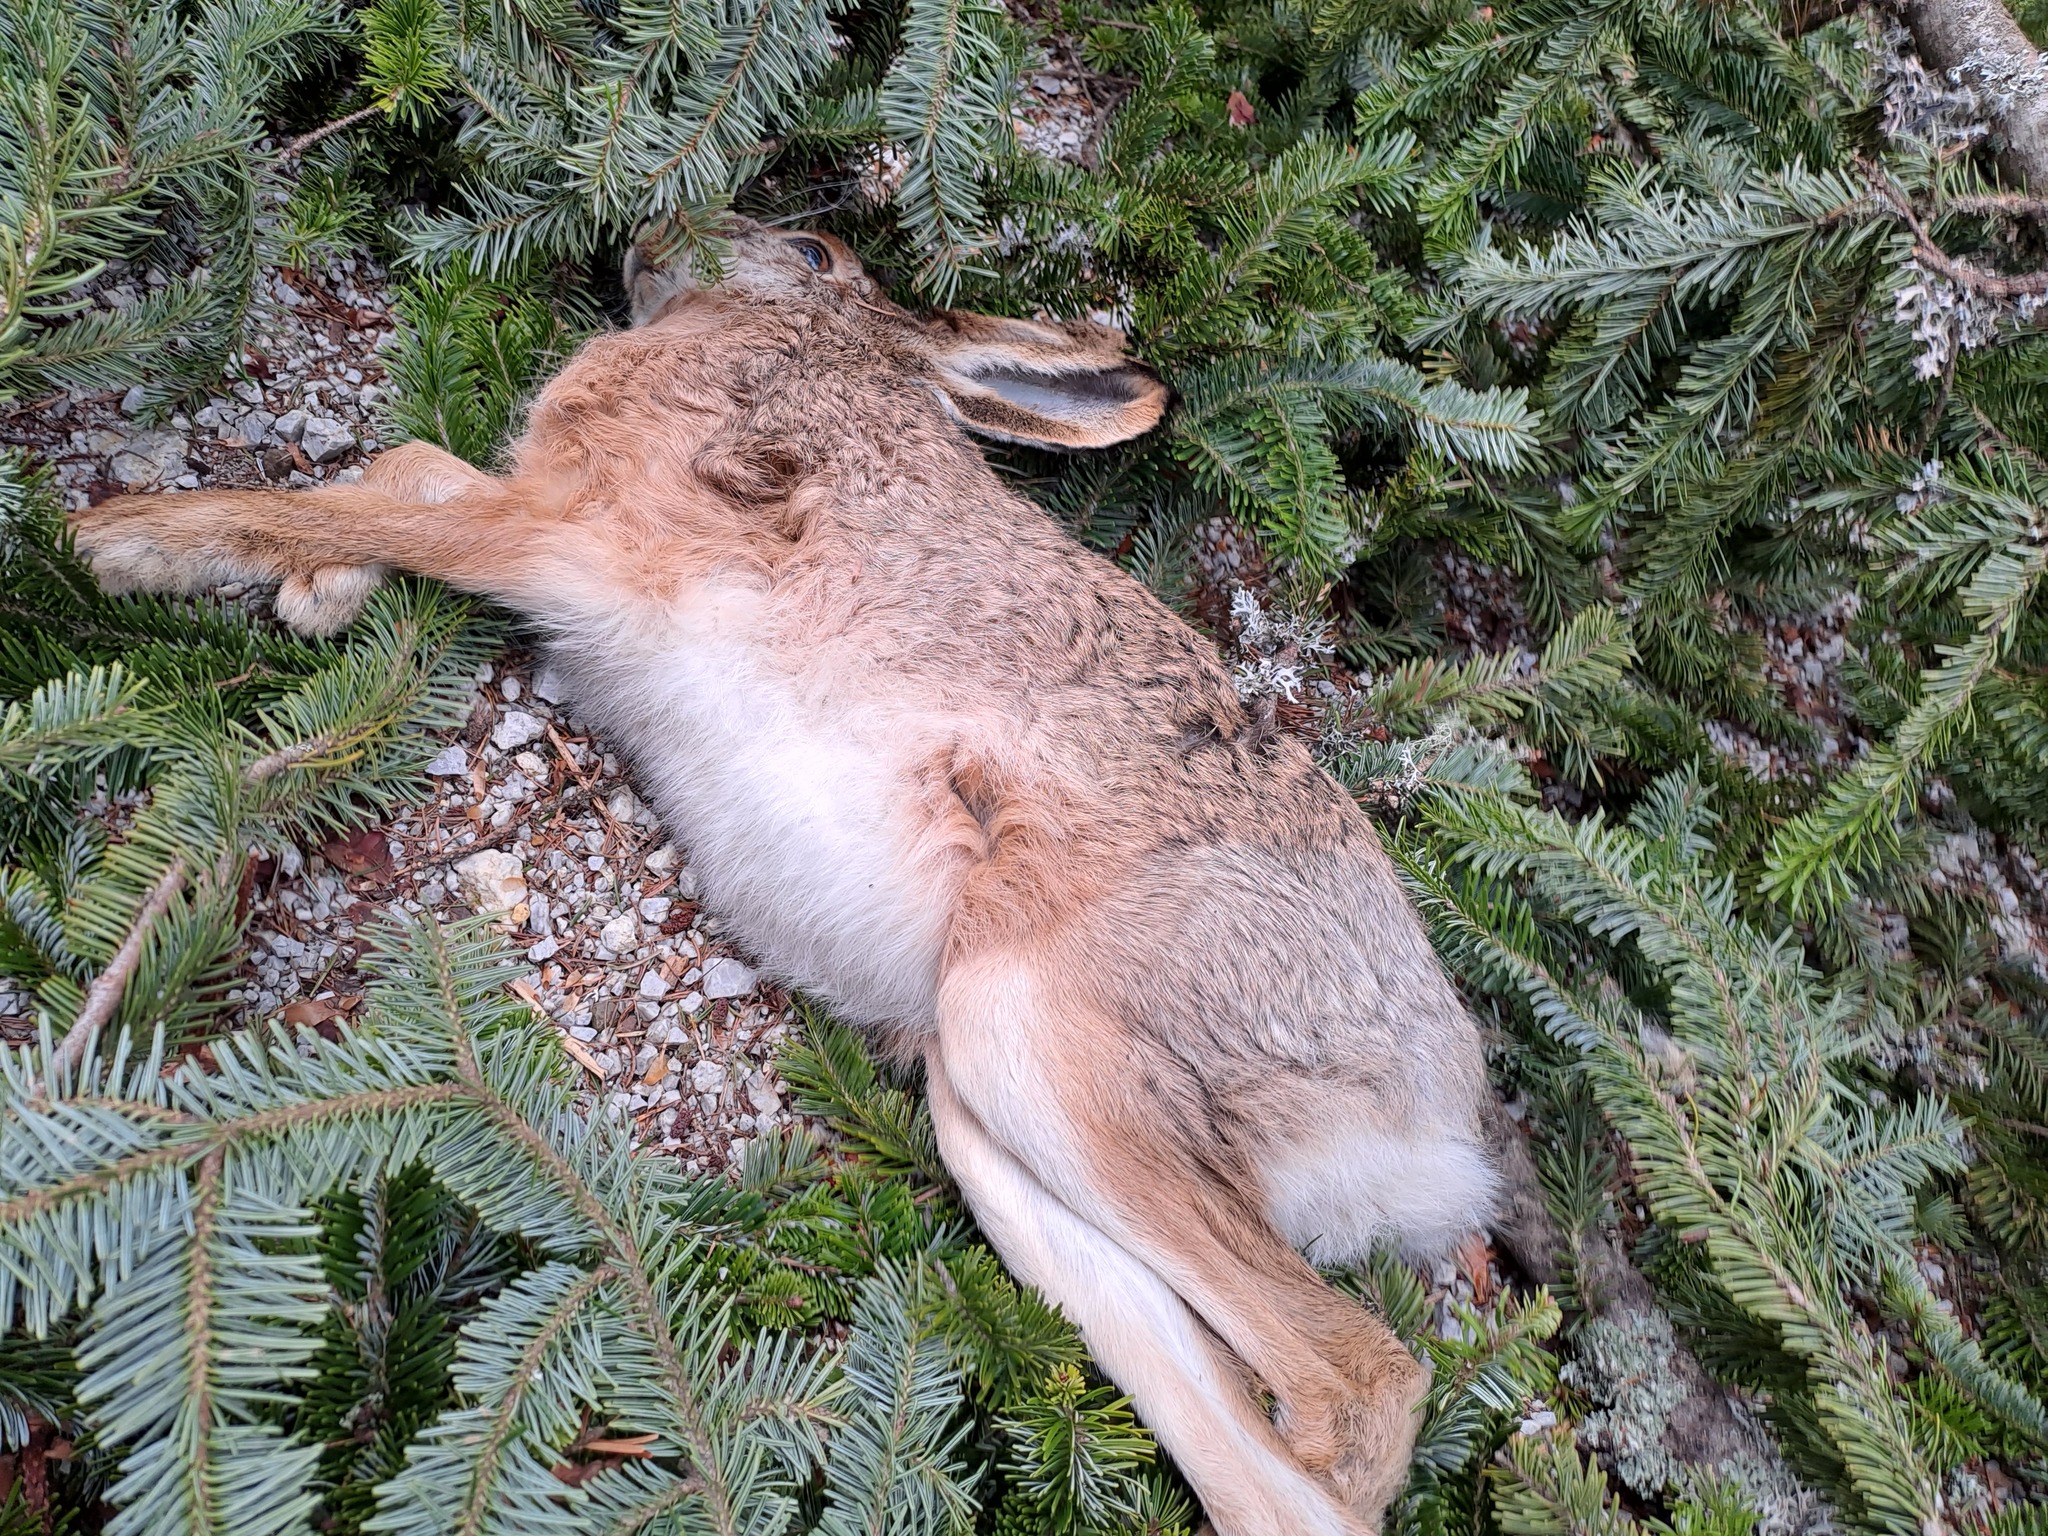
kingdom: Animalia
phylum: Chordata
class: Mammalia
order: Lagomorpha
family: Leporidae
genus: Lepus
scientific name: Lepus europaeus
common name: European hare
